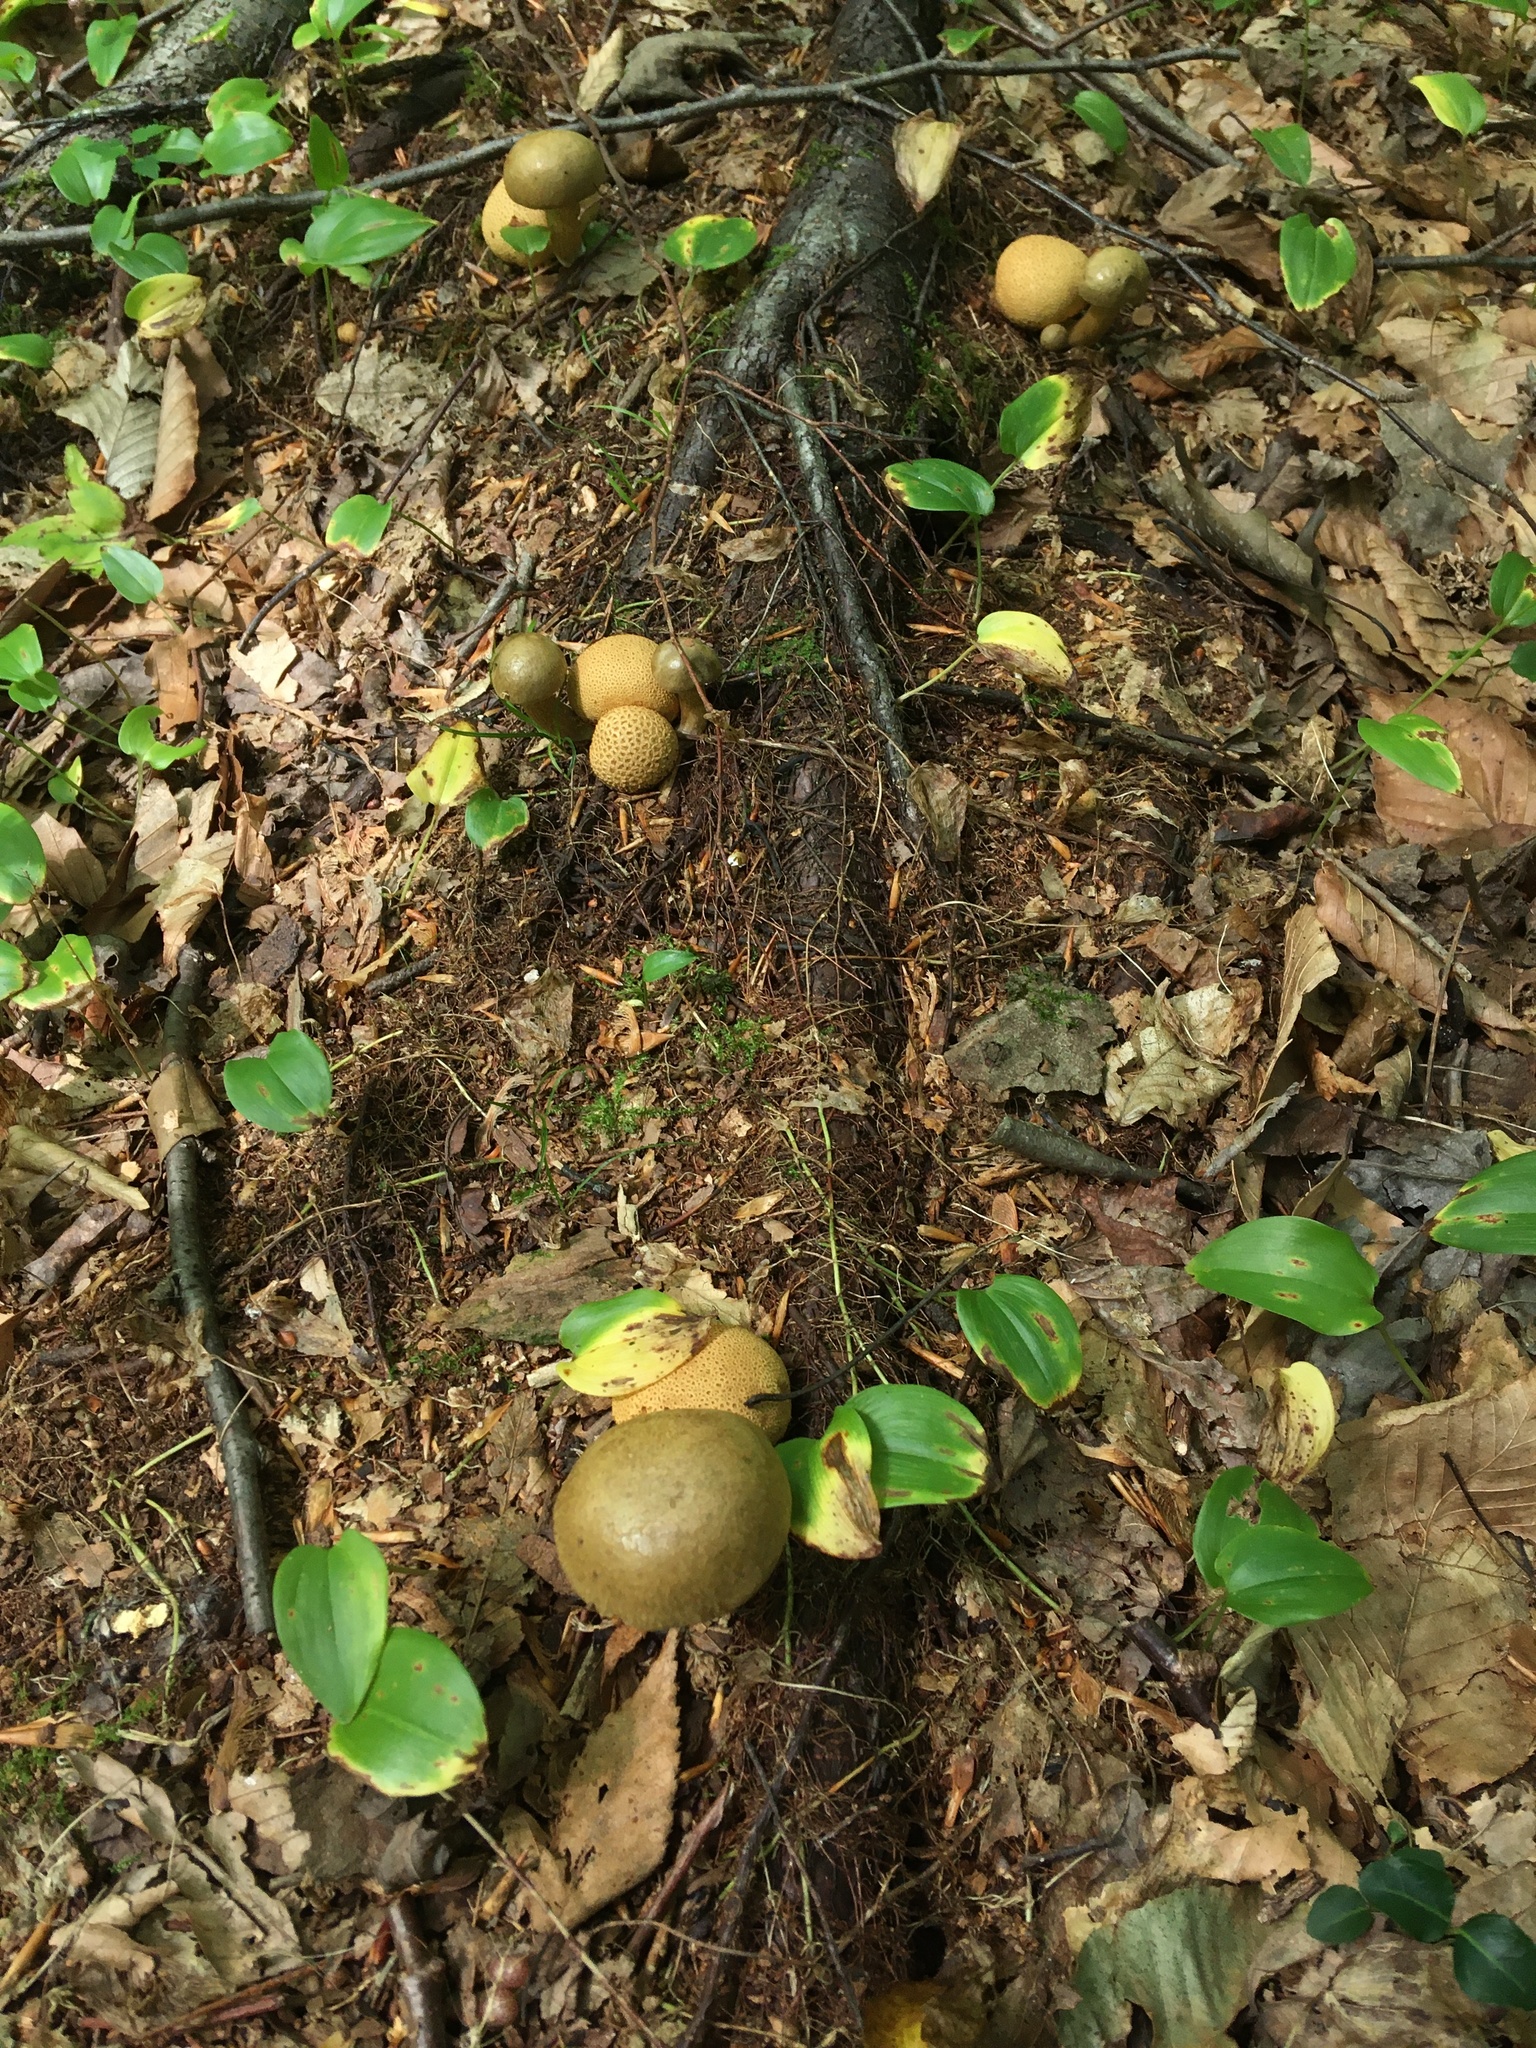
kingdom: Fungi
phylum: Basidiomycota
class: Agaricomycetes
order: Boletales
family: Boletaceae
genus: Pseudoboletus
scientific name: Pseudoboletus parasiticus
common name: Parasitic bolete
